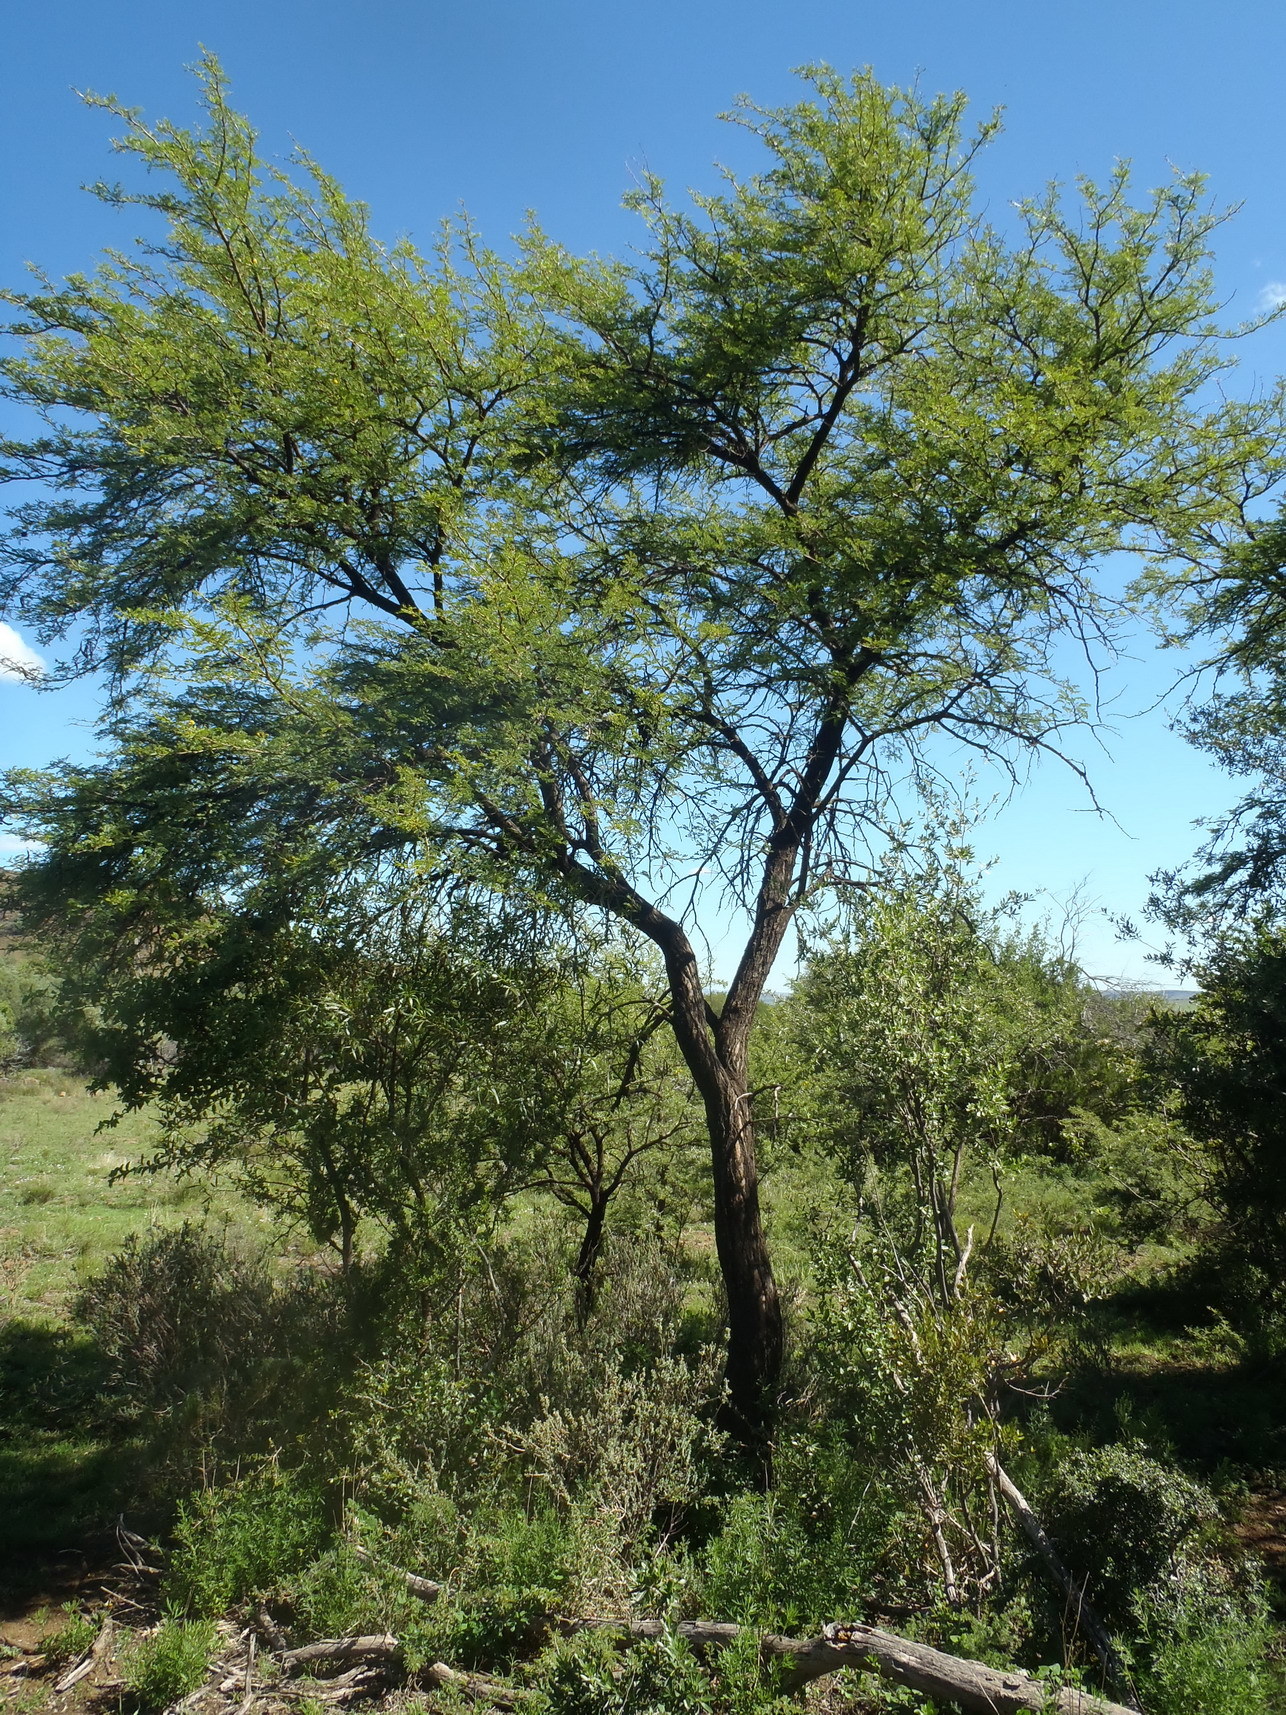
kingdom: Plantae
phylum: Tracheophyta
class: Magnoliopsida
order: Fabales
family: Fabaceae
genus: Vachellia
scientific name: Vachellia karroo
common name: Sweet thorn
